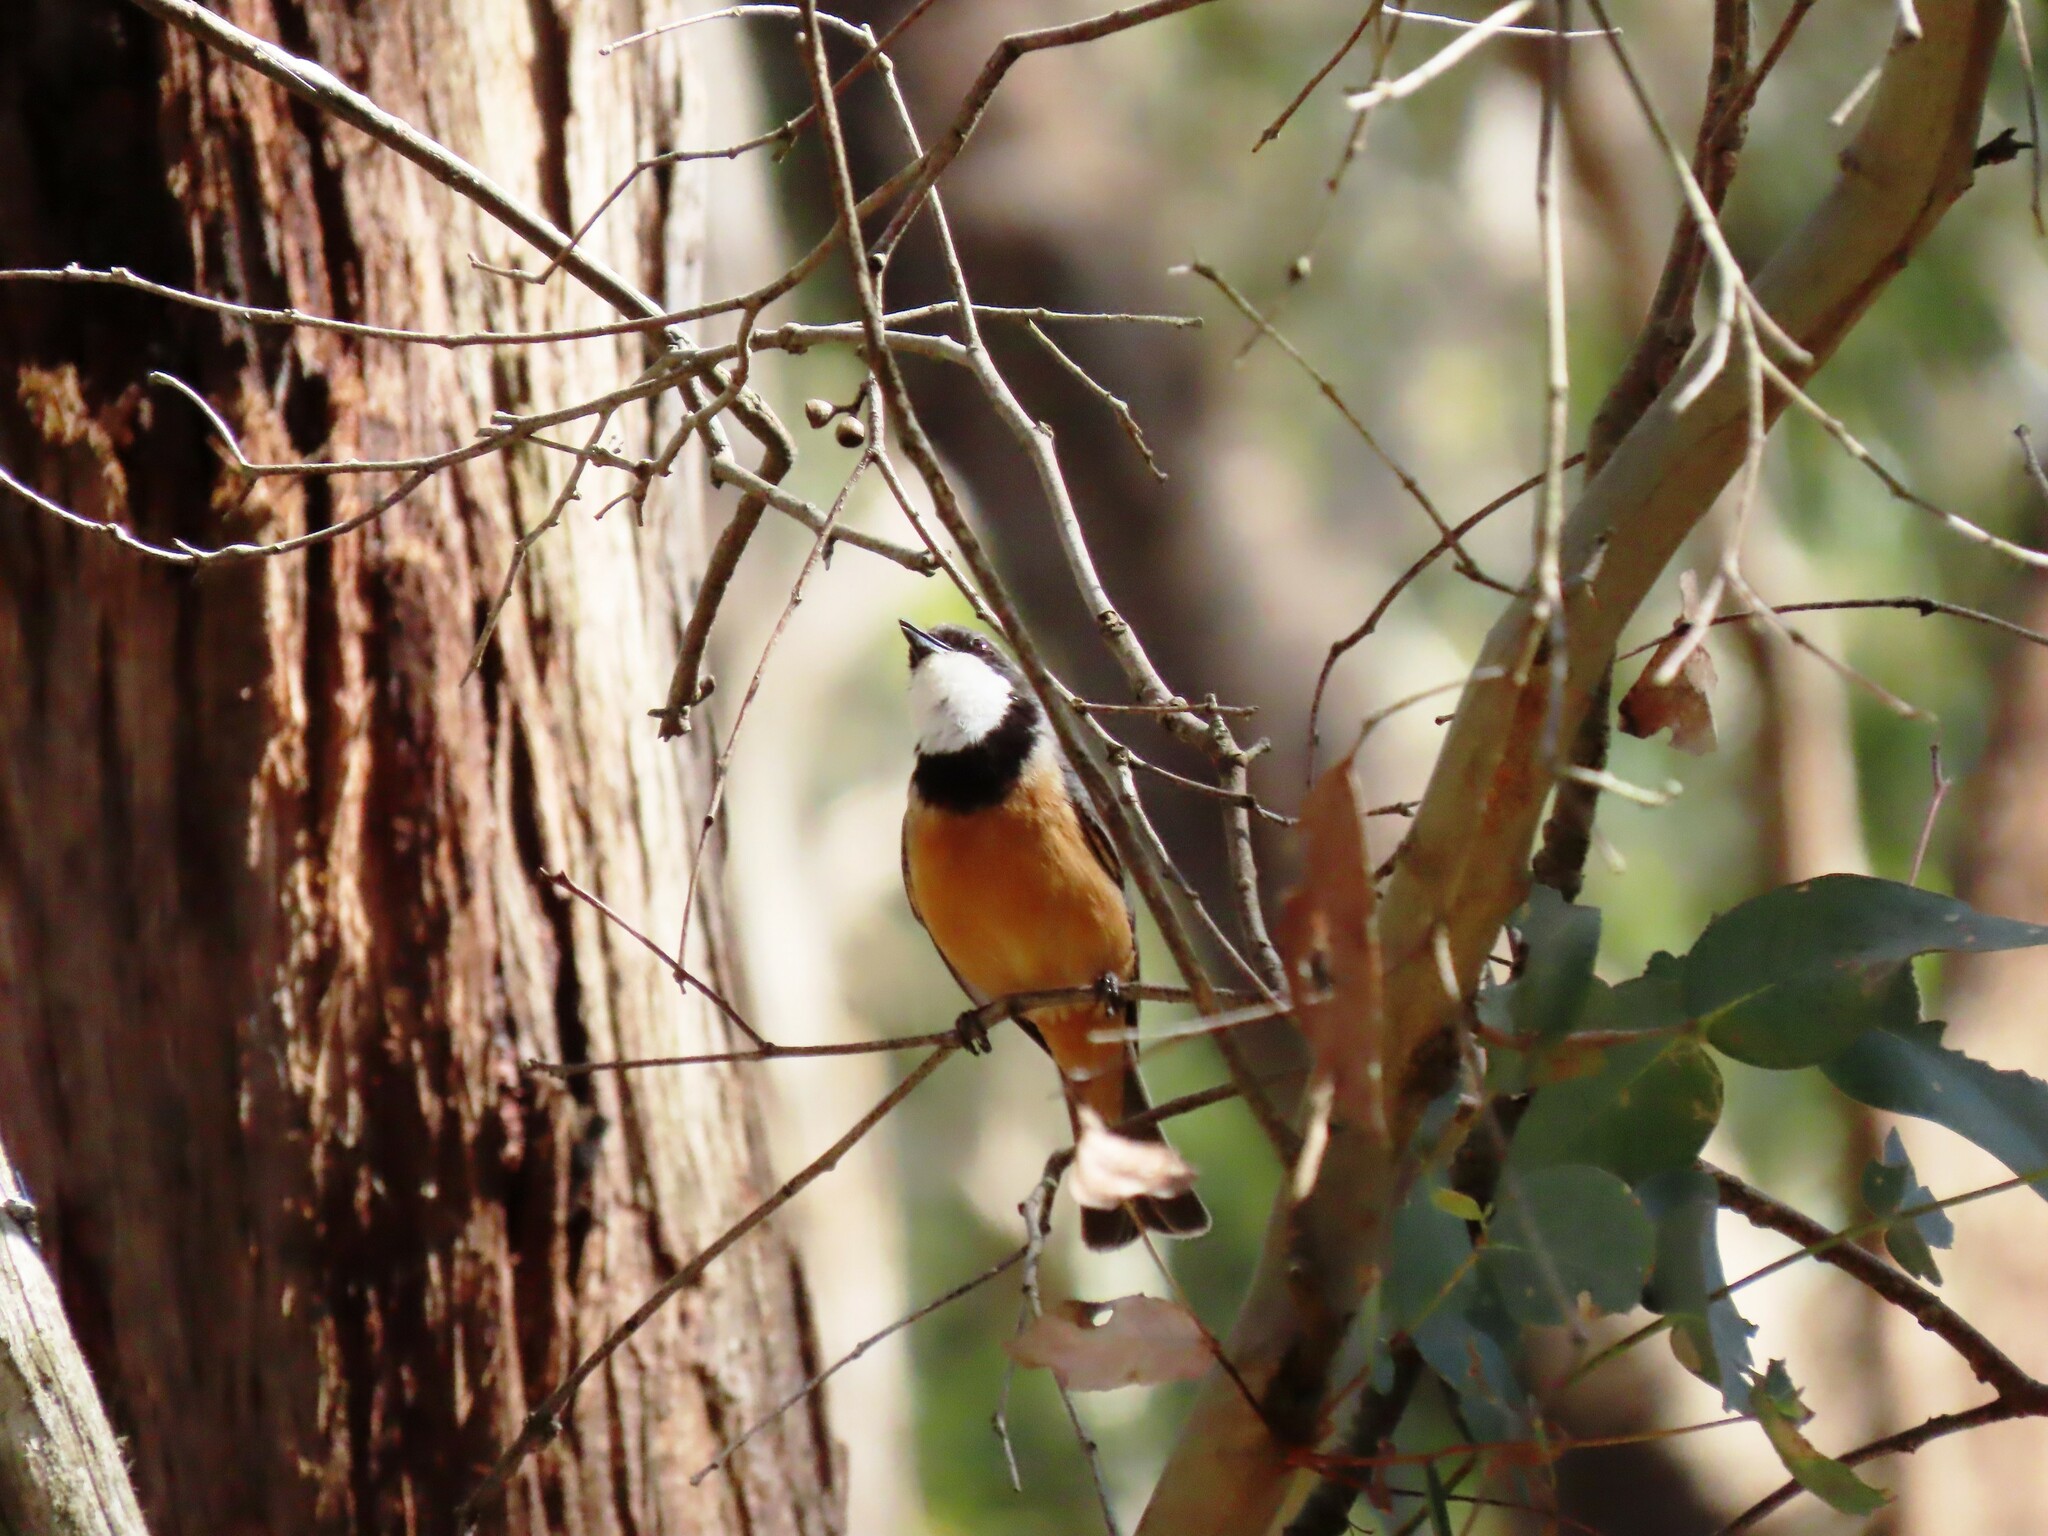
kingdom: Animalia
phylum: Chordata
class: Aves
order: Passeriformes
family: Pachycephalidae
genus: Pachycephala
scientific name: Pachycephala rufiventris
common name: Rufous whistler
